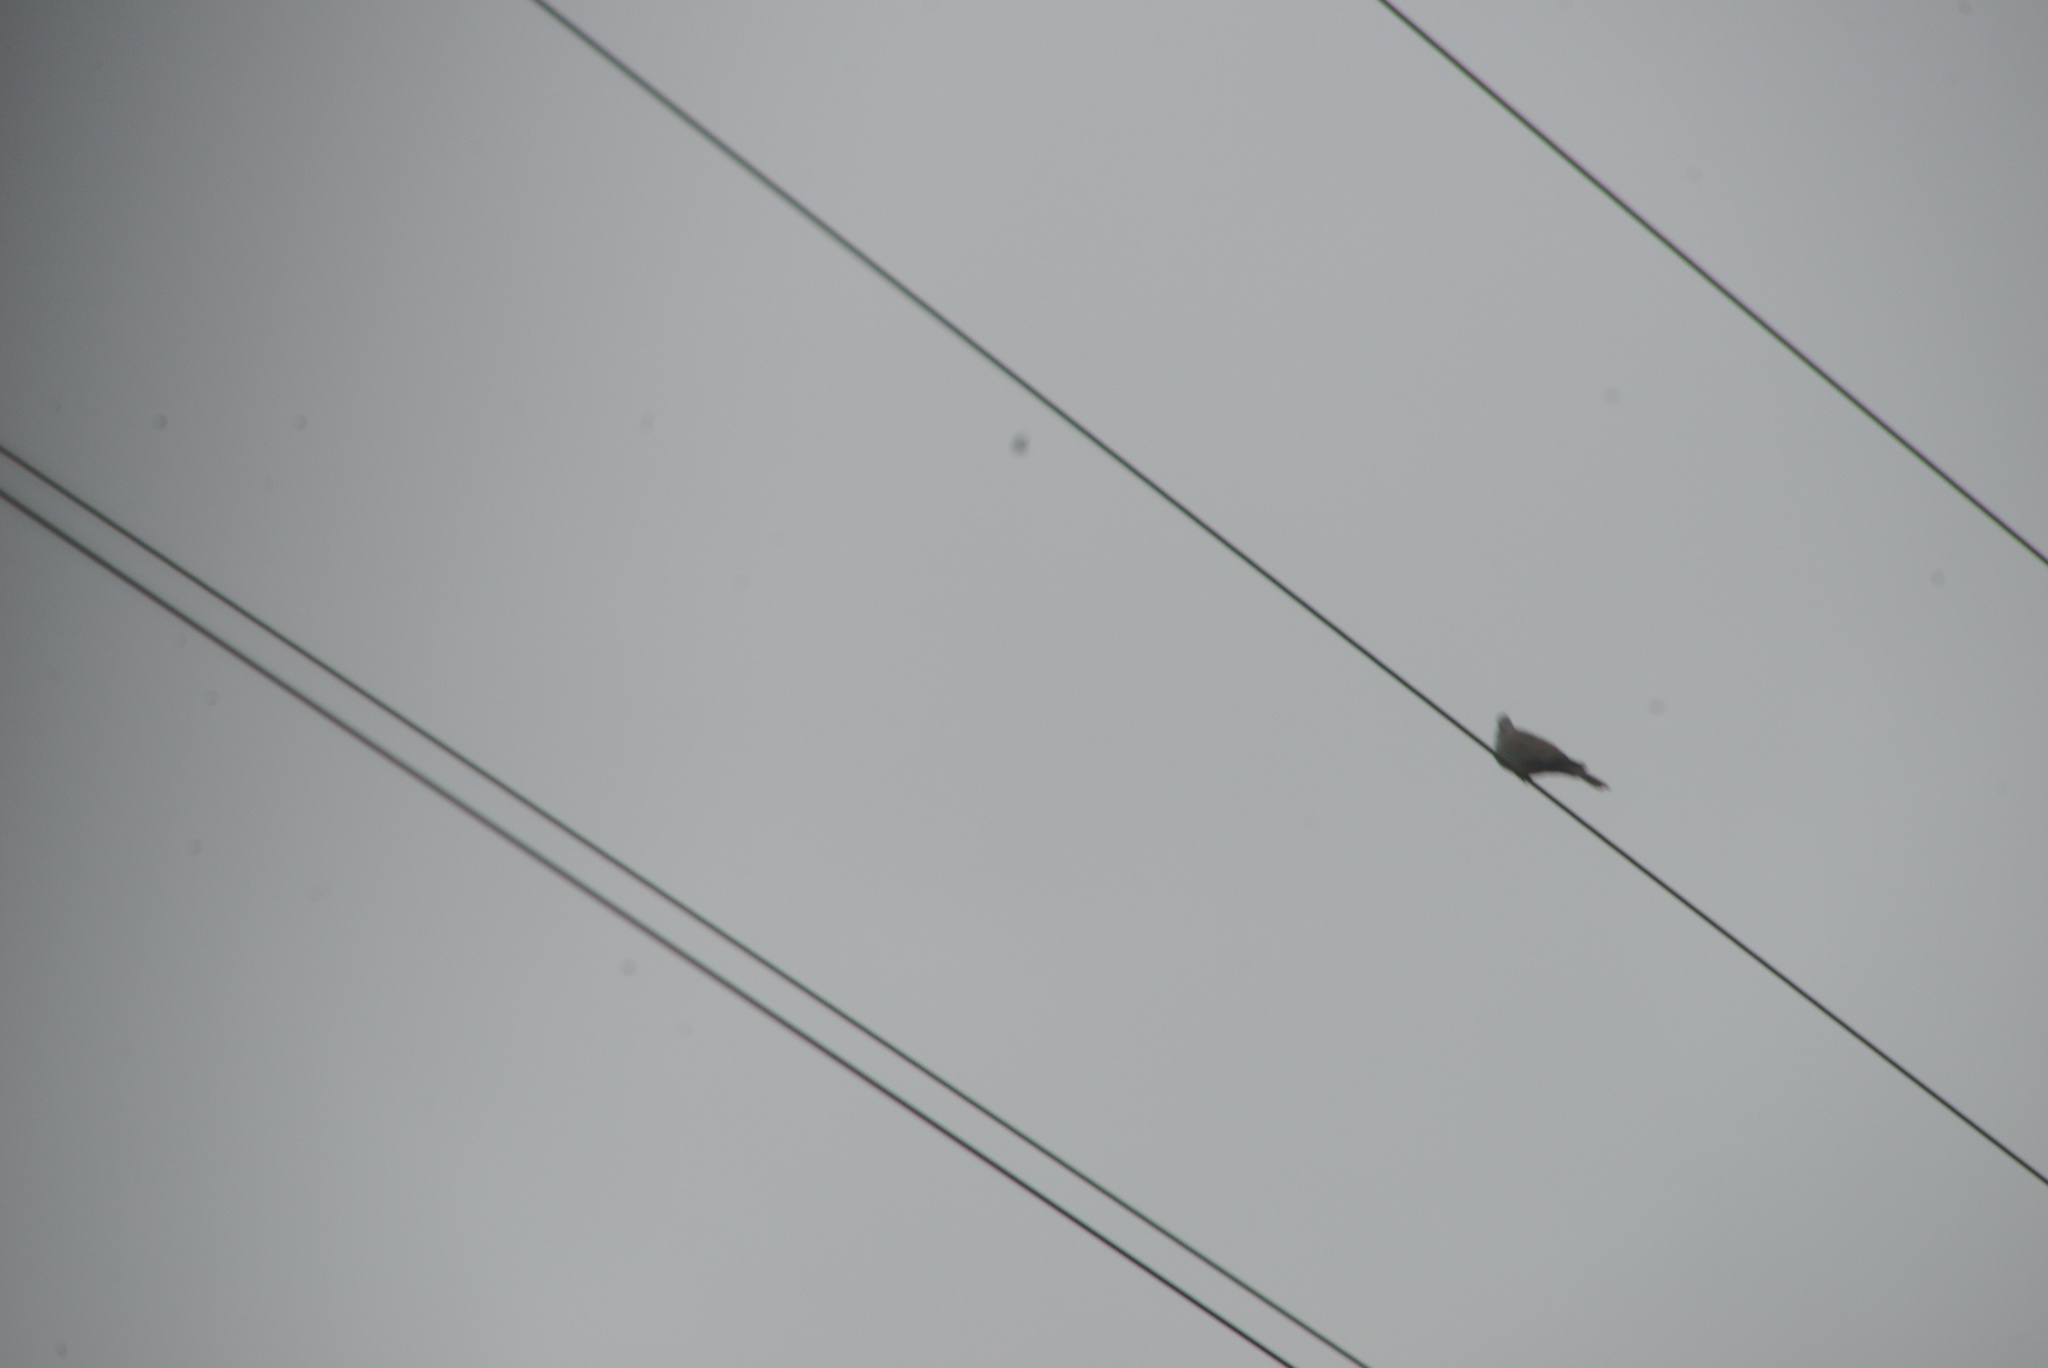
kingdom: Animalia
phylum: Chordata
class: Aves
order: Columbiformes
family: Columbidae
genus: Streptopelia
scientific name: Streptopelia decaocto
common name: Eurasian collared dove
